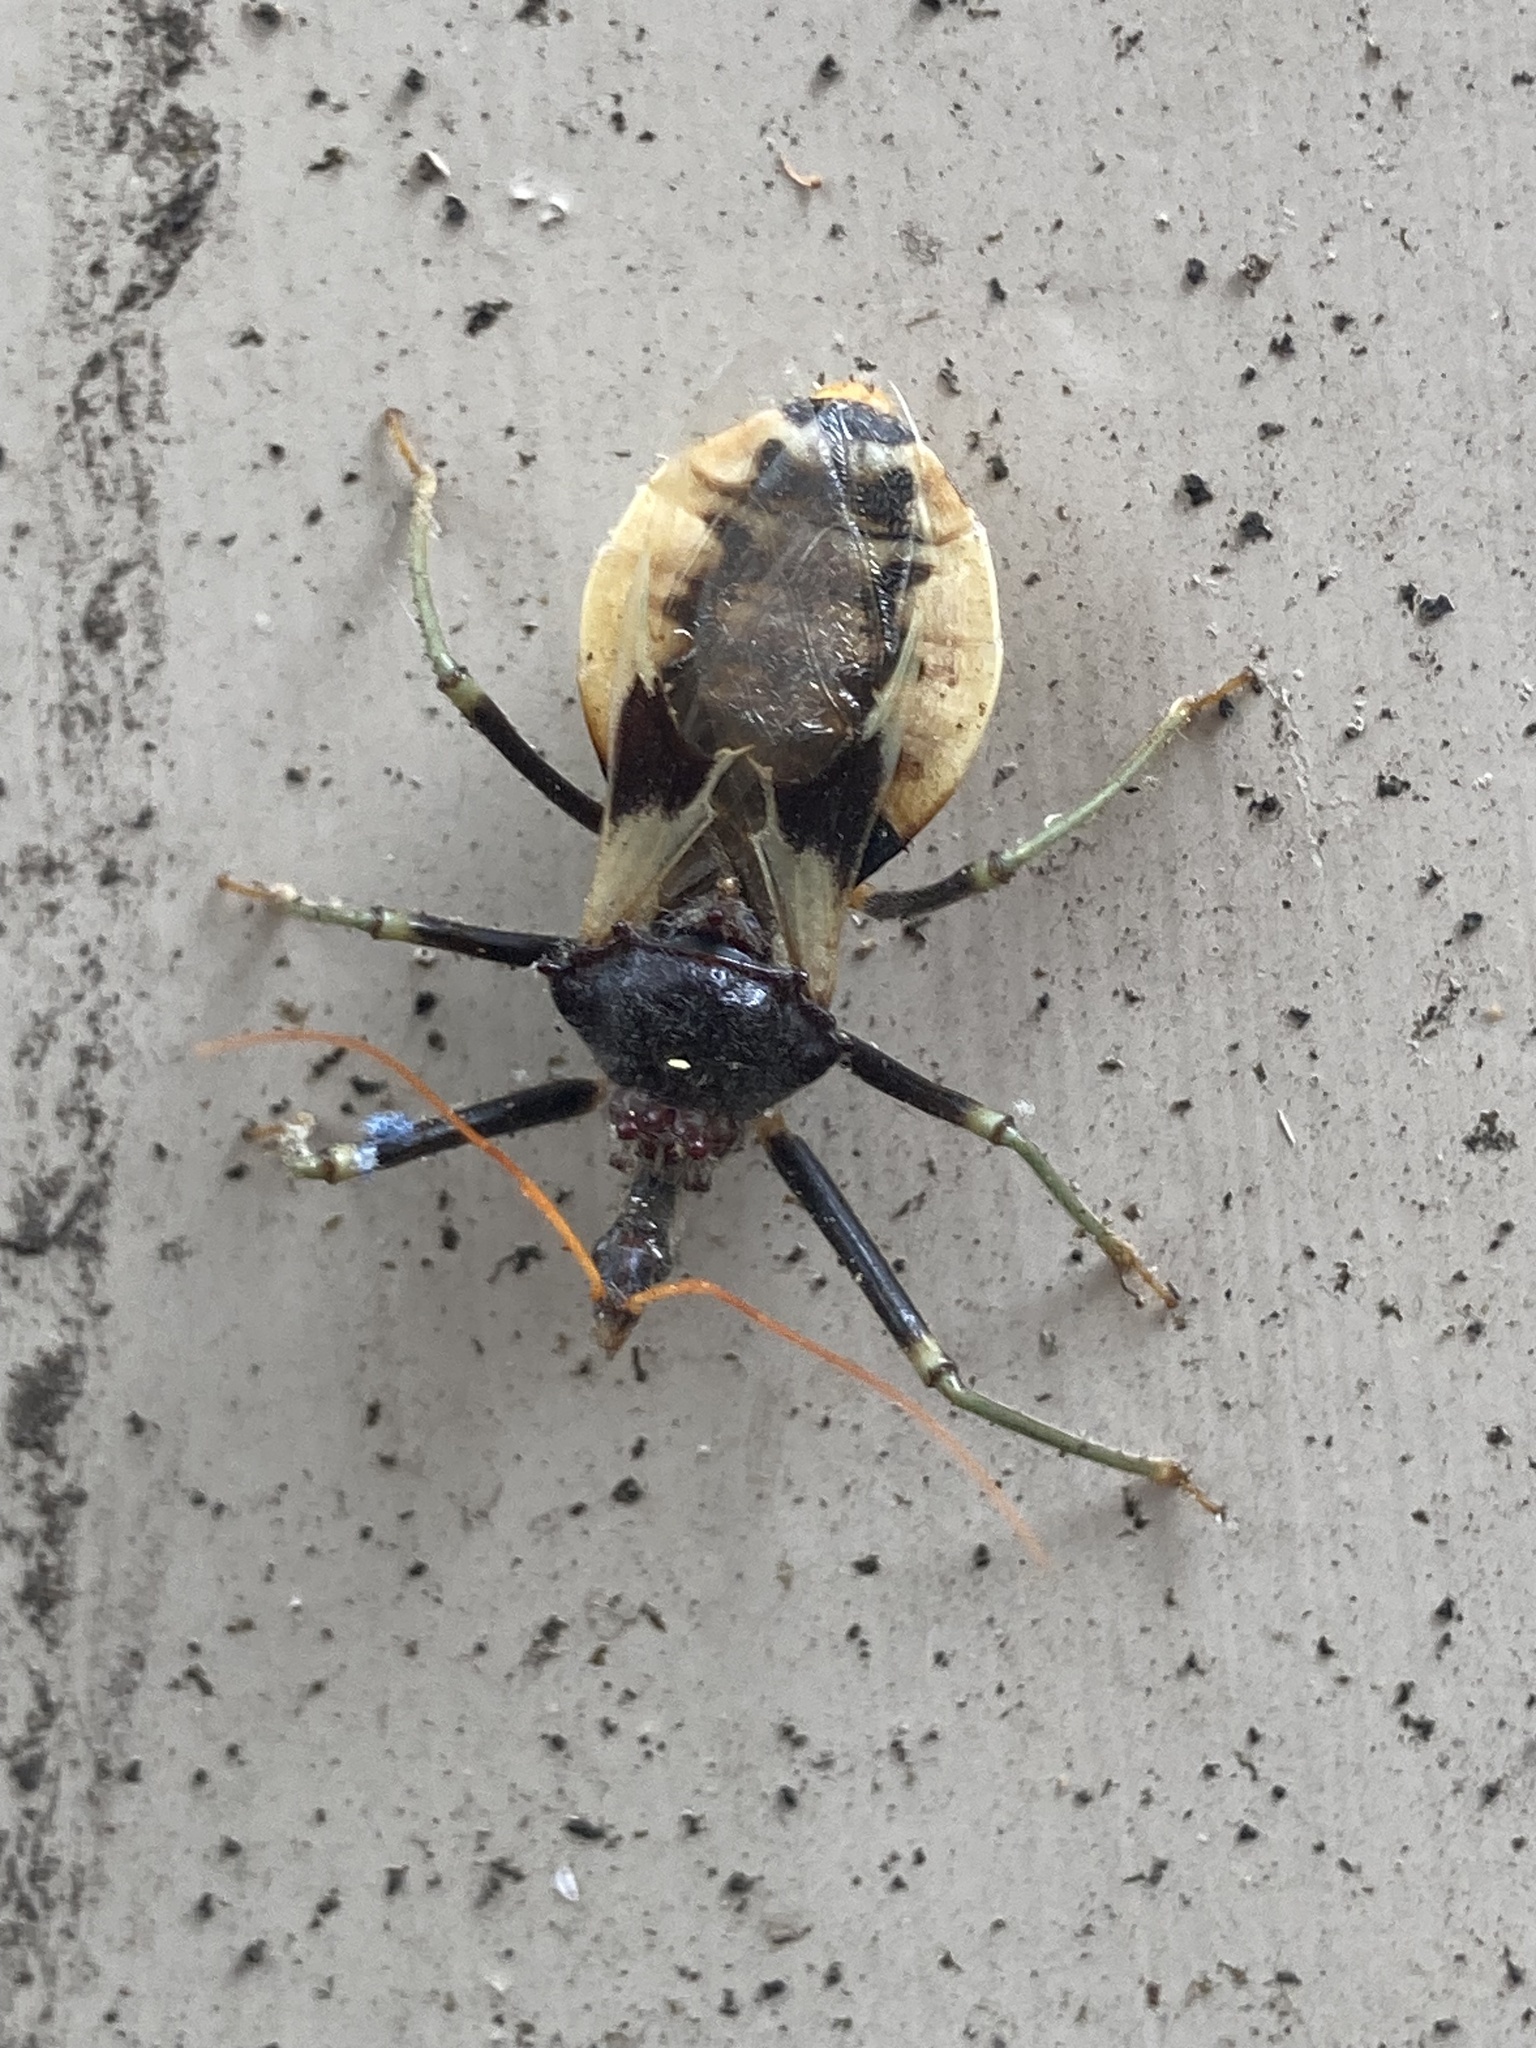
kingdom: Animalia
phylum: Arthropoda
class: Insecta
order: Hemiptera
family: Reduviidae
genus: Pristhesancus
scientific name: Pristhesancus plagipennis
